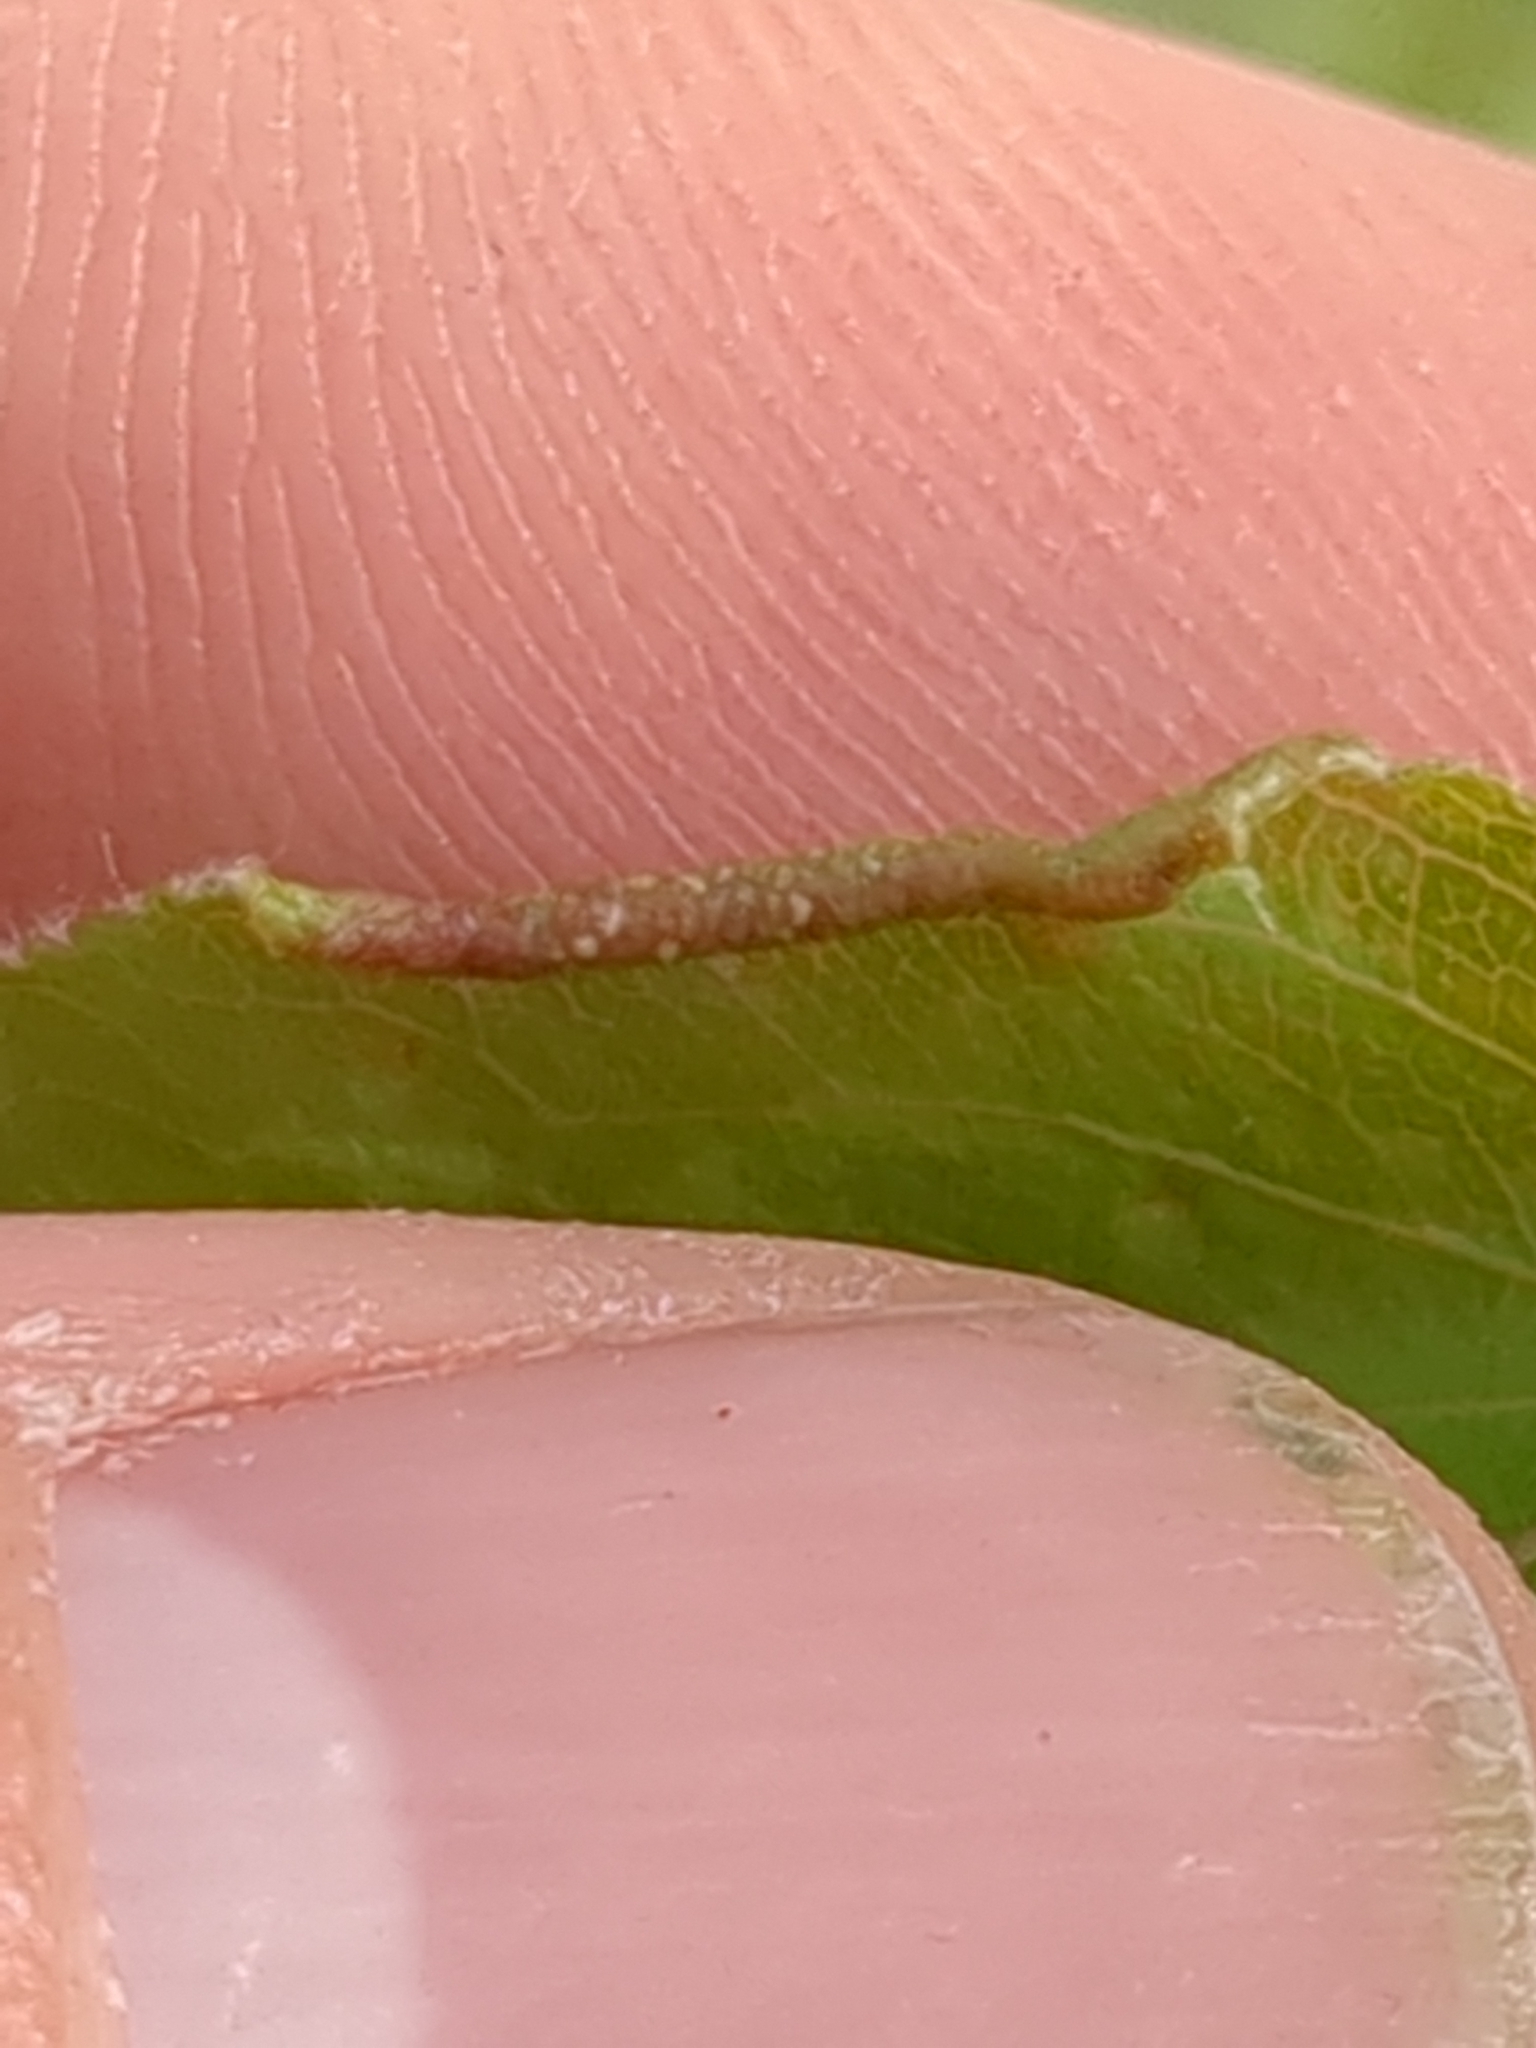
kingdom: Animalia
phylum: Arthropoda
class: Arachnida
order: Trombidiformes
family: Eriophyidae
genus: Eriophyes
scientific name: Eriophyes marginemtorquens
